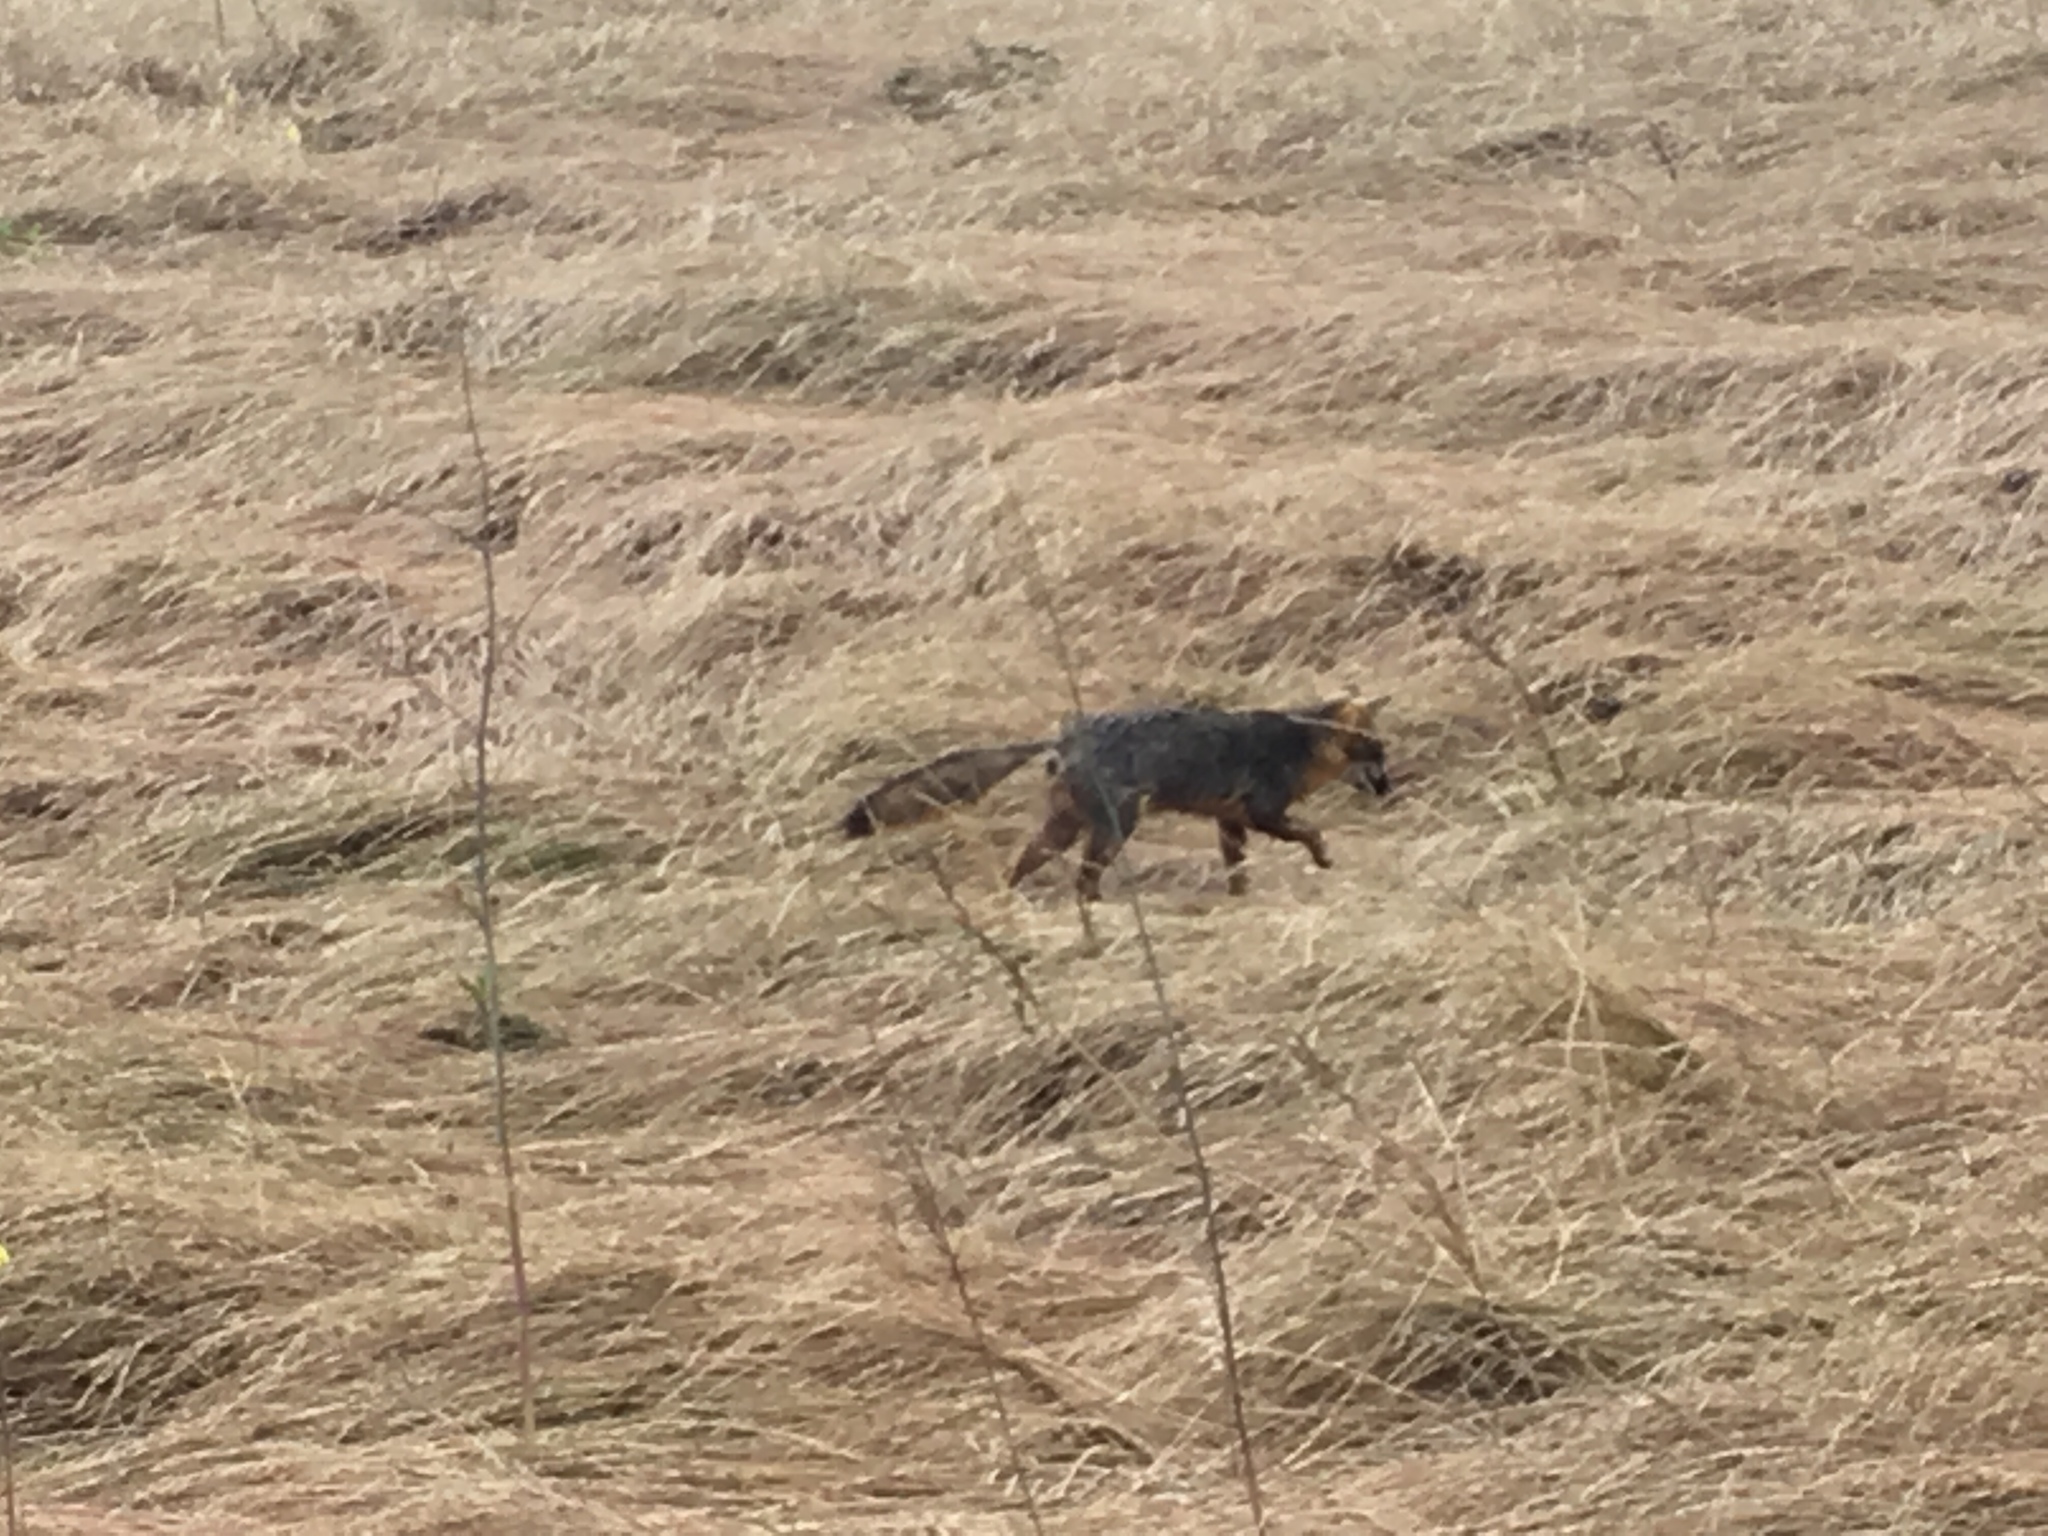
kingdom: Animalia
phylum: Chordata
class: Mammalia
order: Carnivora
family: Canidae
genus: Urocyon
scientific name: Urocyon littoralis
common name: Island gray fox
